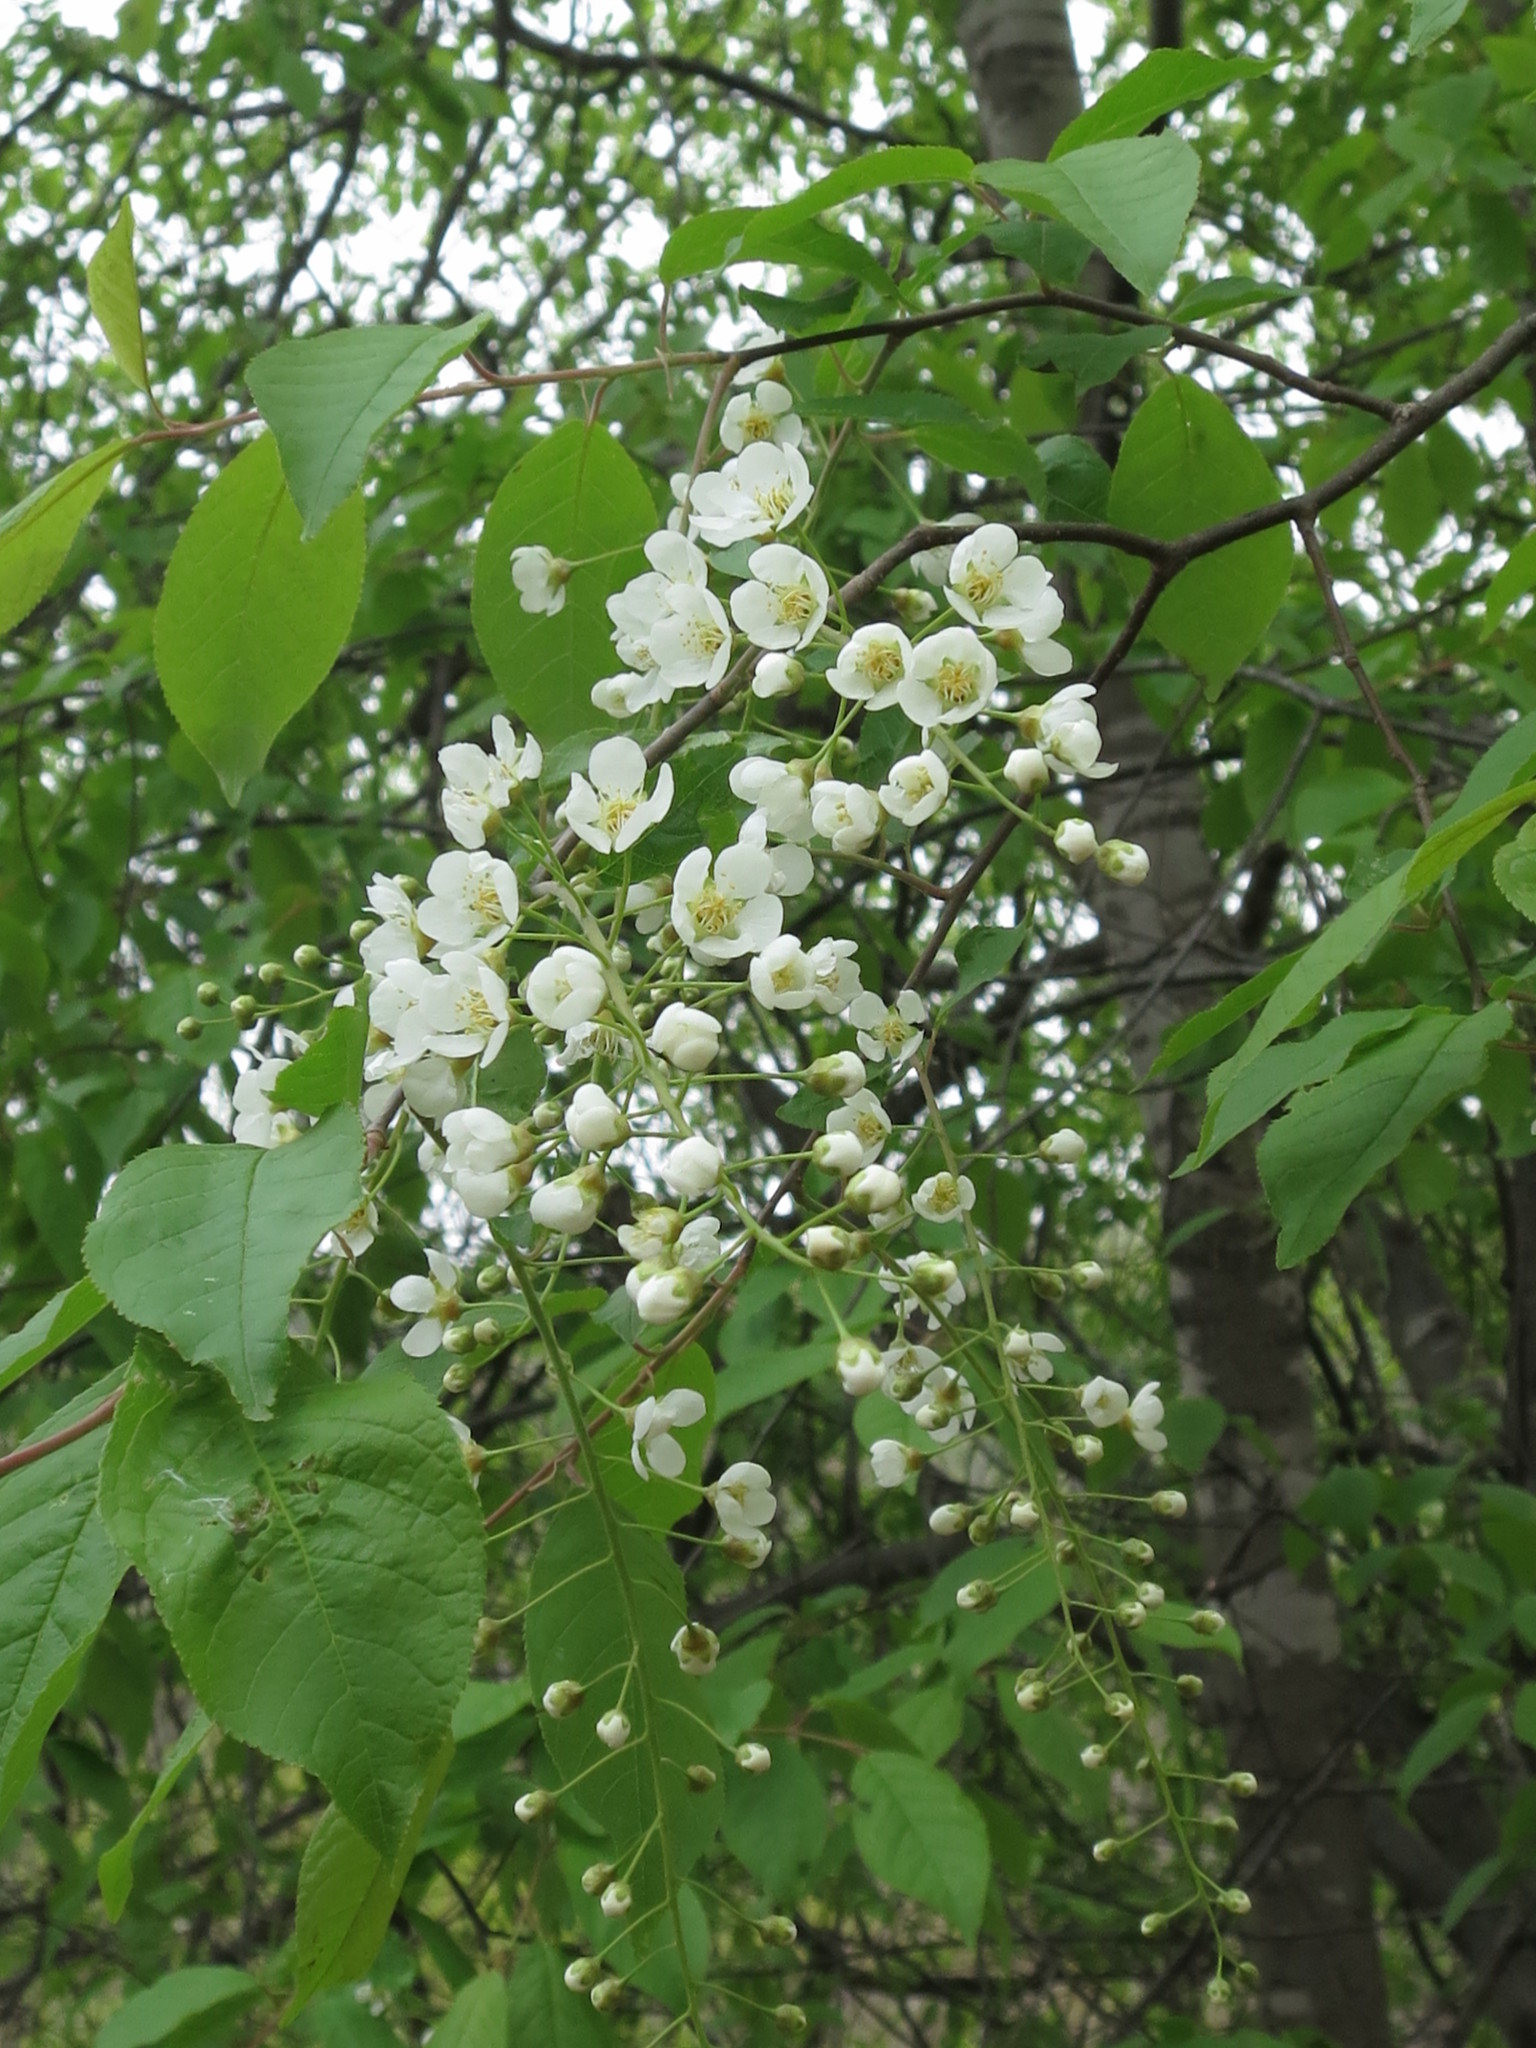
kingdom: Plantae
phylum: Tracheophyta
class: Magnoliopsida
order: Rosales
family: Rosaceae
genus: Prunus
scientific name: Prunus padus
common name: Bird cherry
